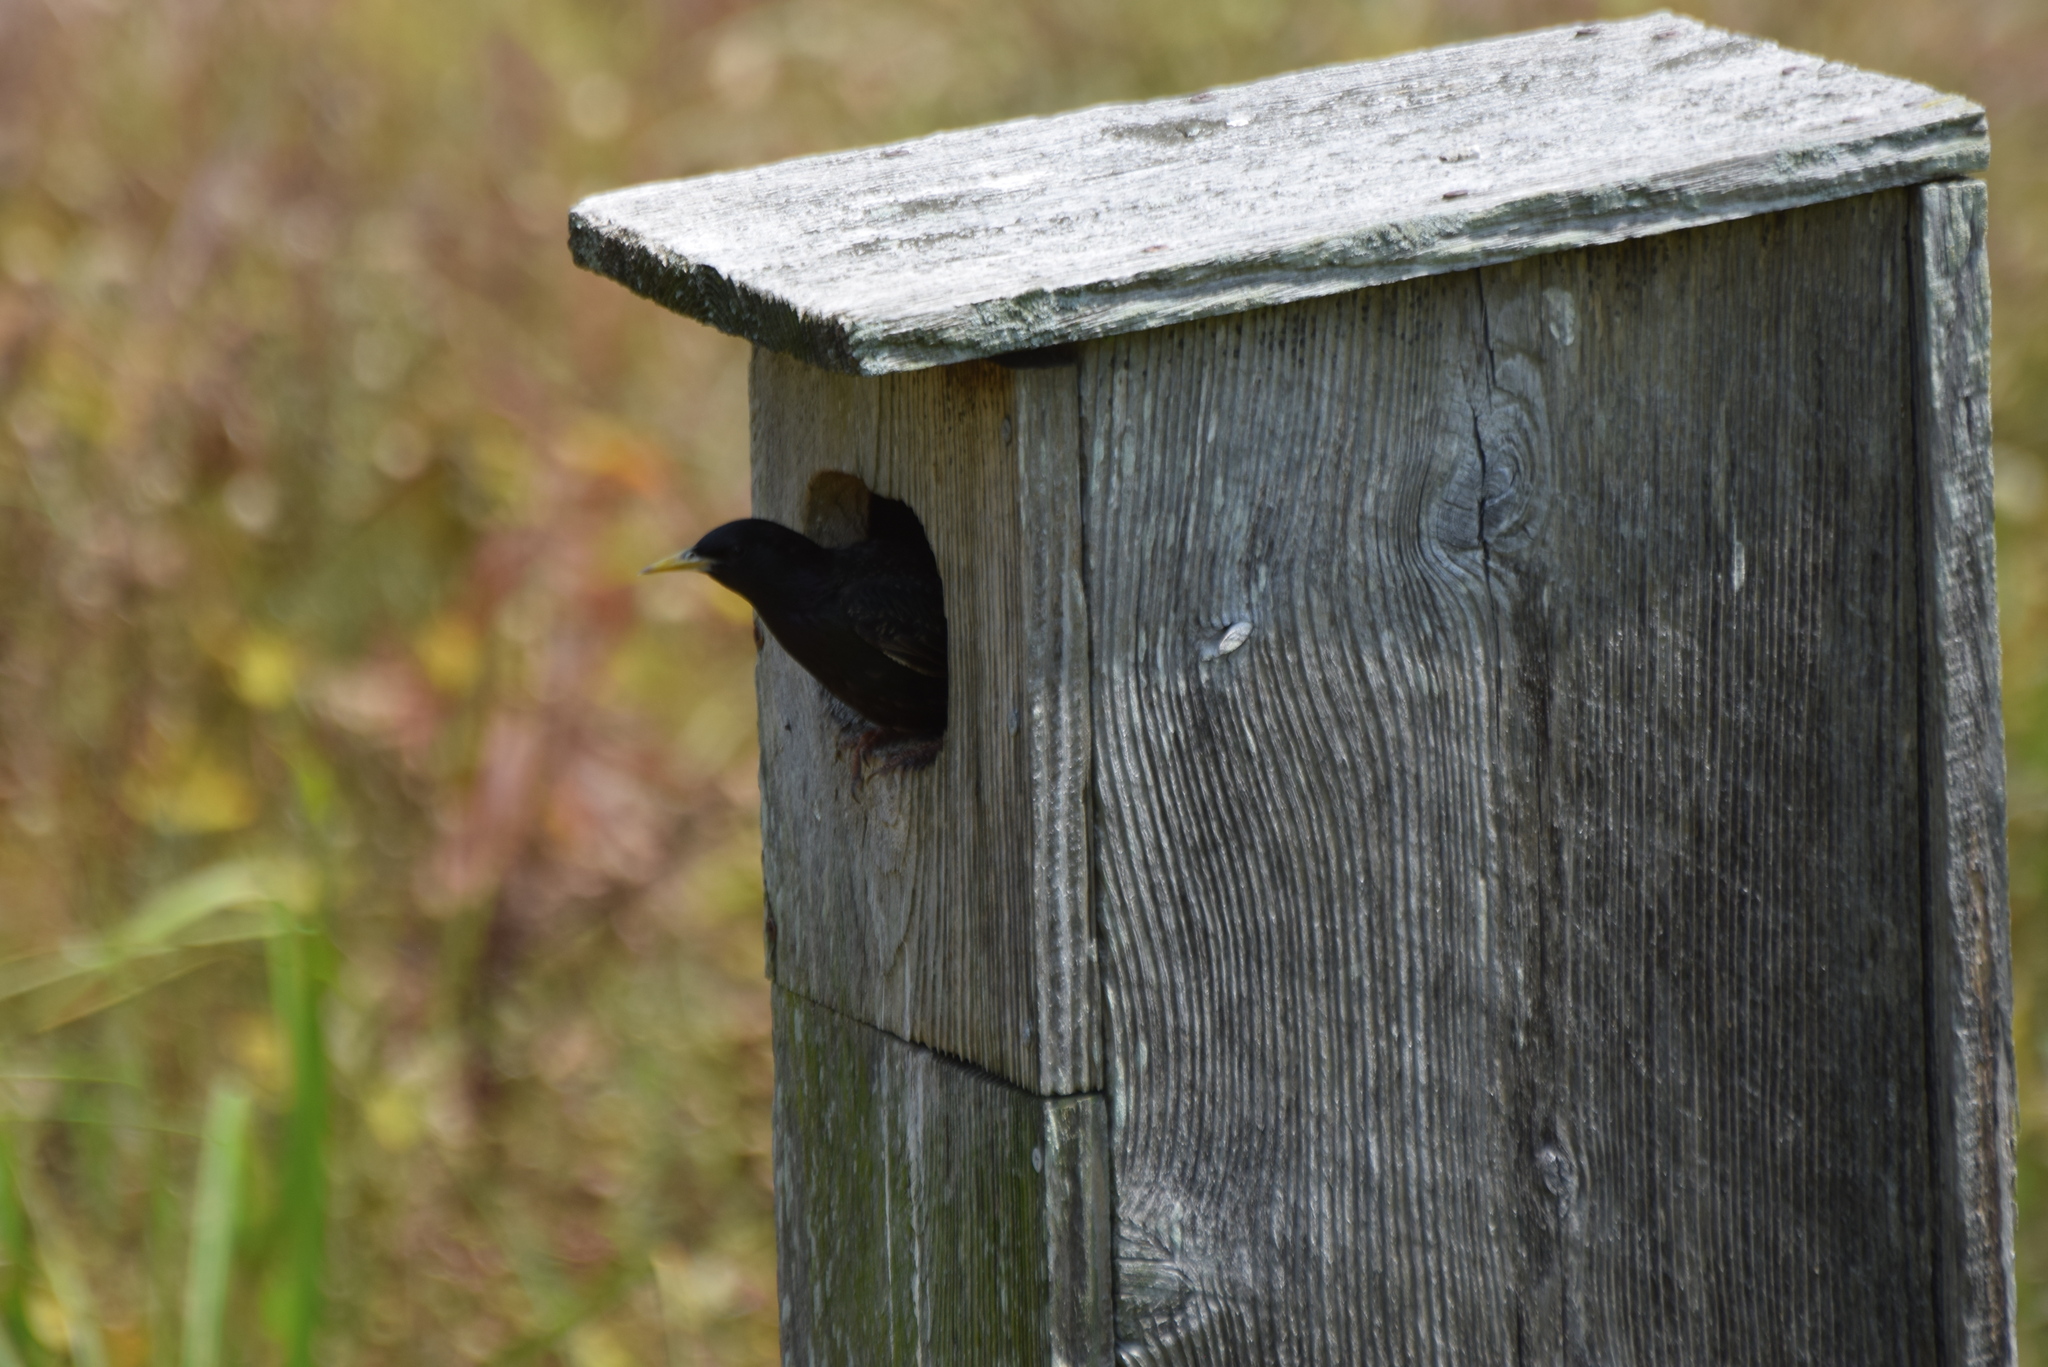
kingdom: Animalia
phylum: Chordata
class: Aves
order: Passeriformes
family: Sturnidae
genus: Sturnus
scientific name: Sturnus vulgaris
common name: Common starling
